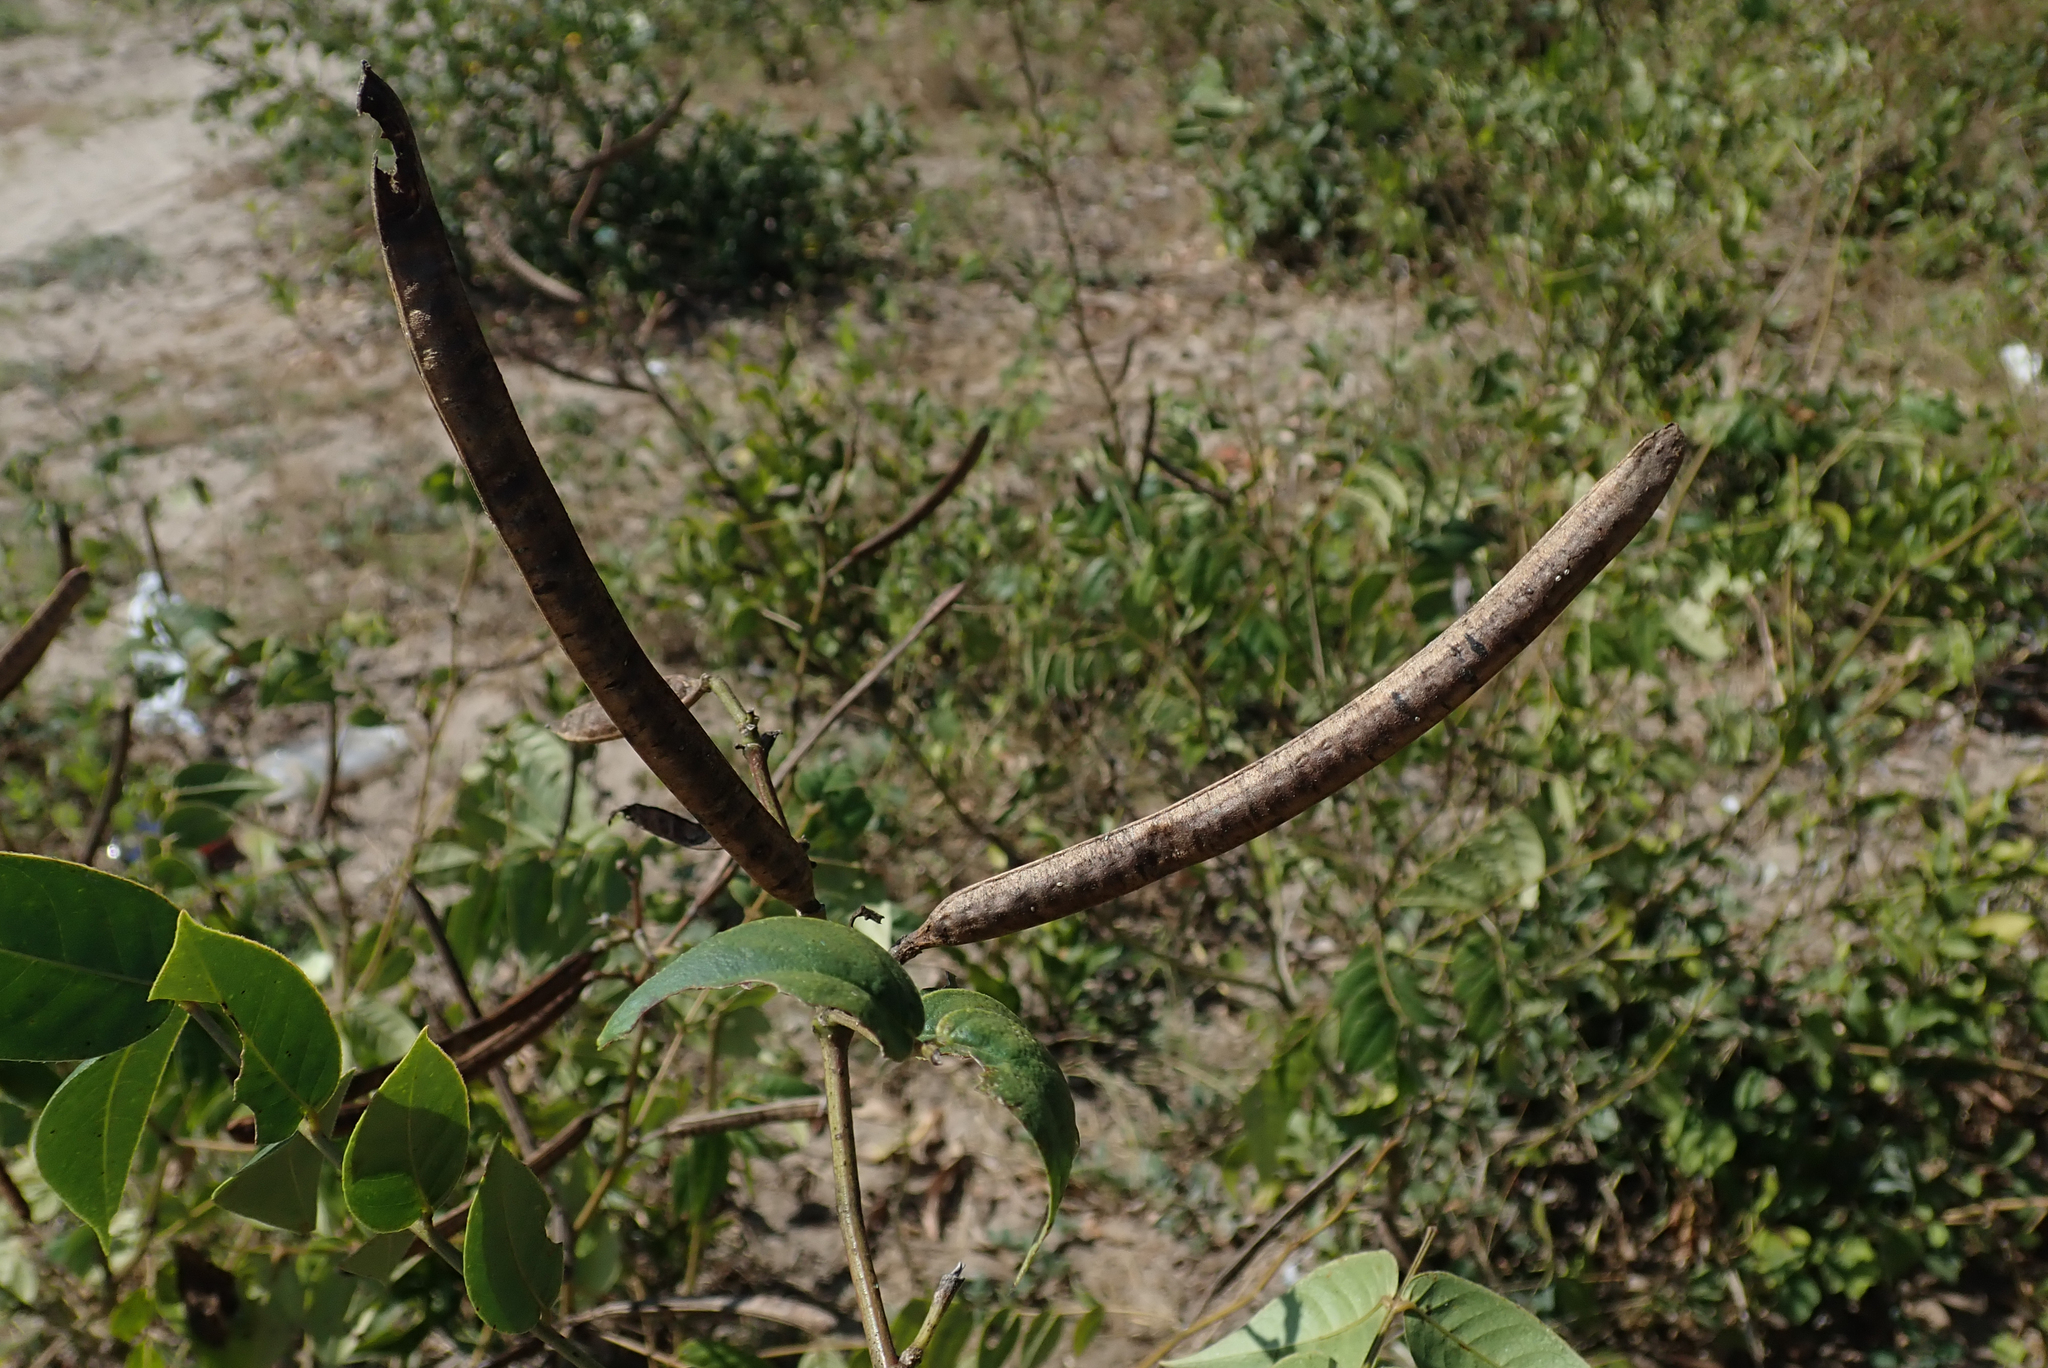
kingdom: Plantae
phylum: Tracheophyta
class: Magnoliopsida
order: Fabales
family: Fabaceae
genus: Senna
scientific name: Senna occidentalis
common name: Septicweed
